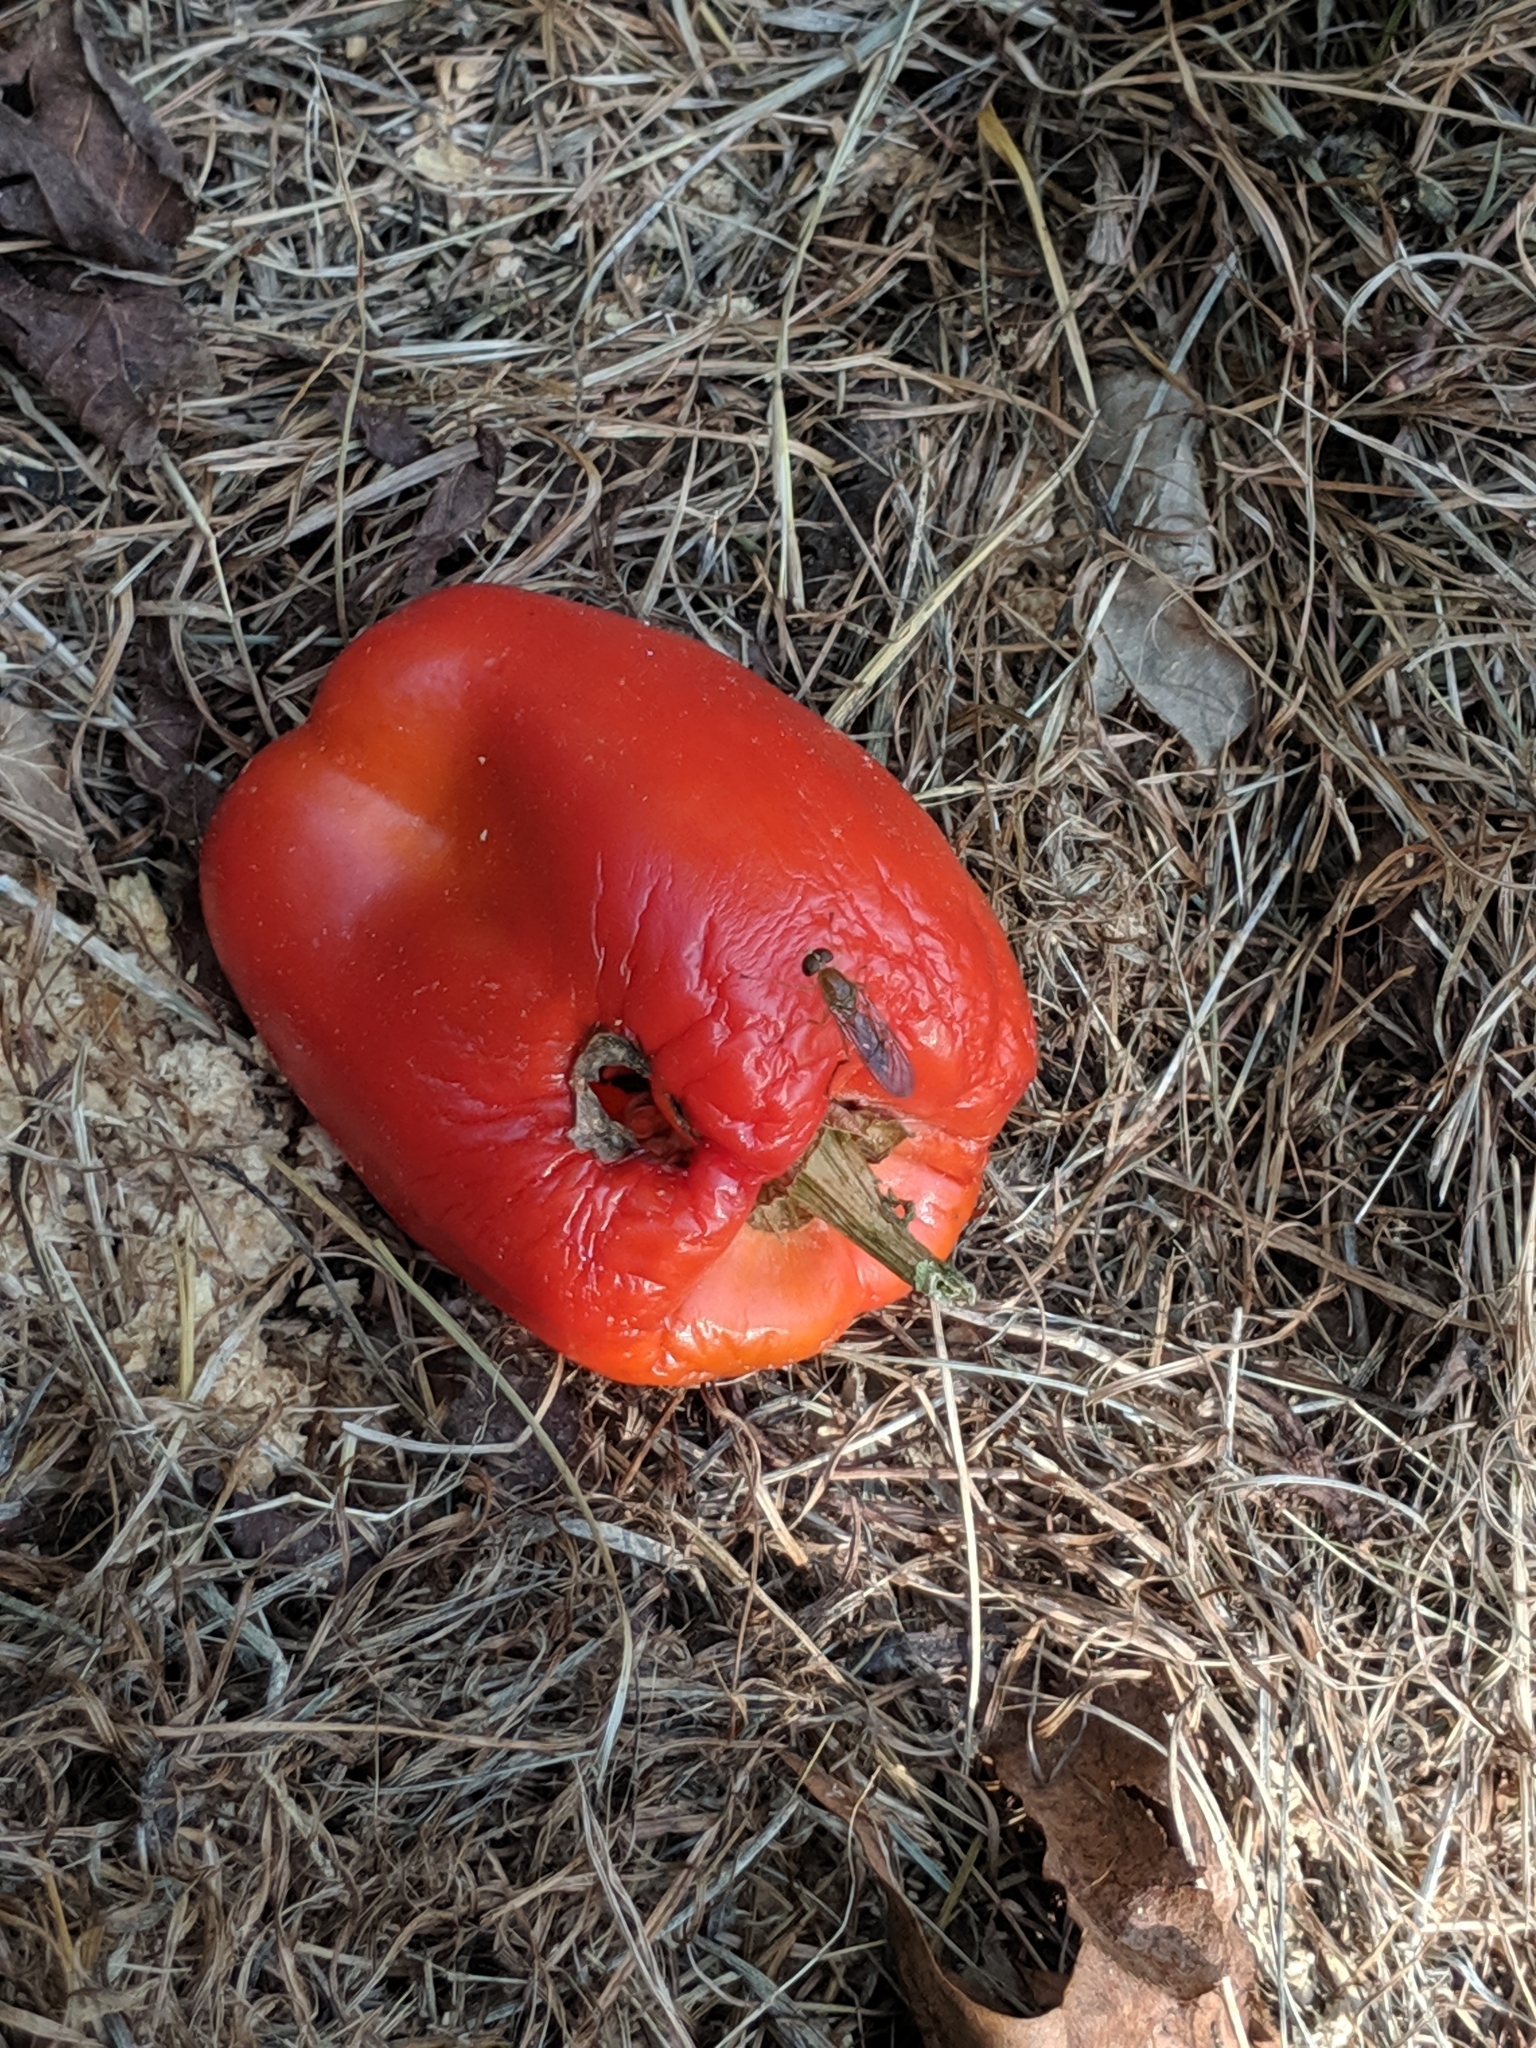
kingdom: Animalia
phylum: Arthropoda
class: Insecta
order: Diptera
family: Stratiomyidae
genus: Ptecticus
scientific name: Ptecticus trivittatus
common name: Compost fly
